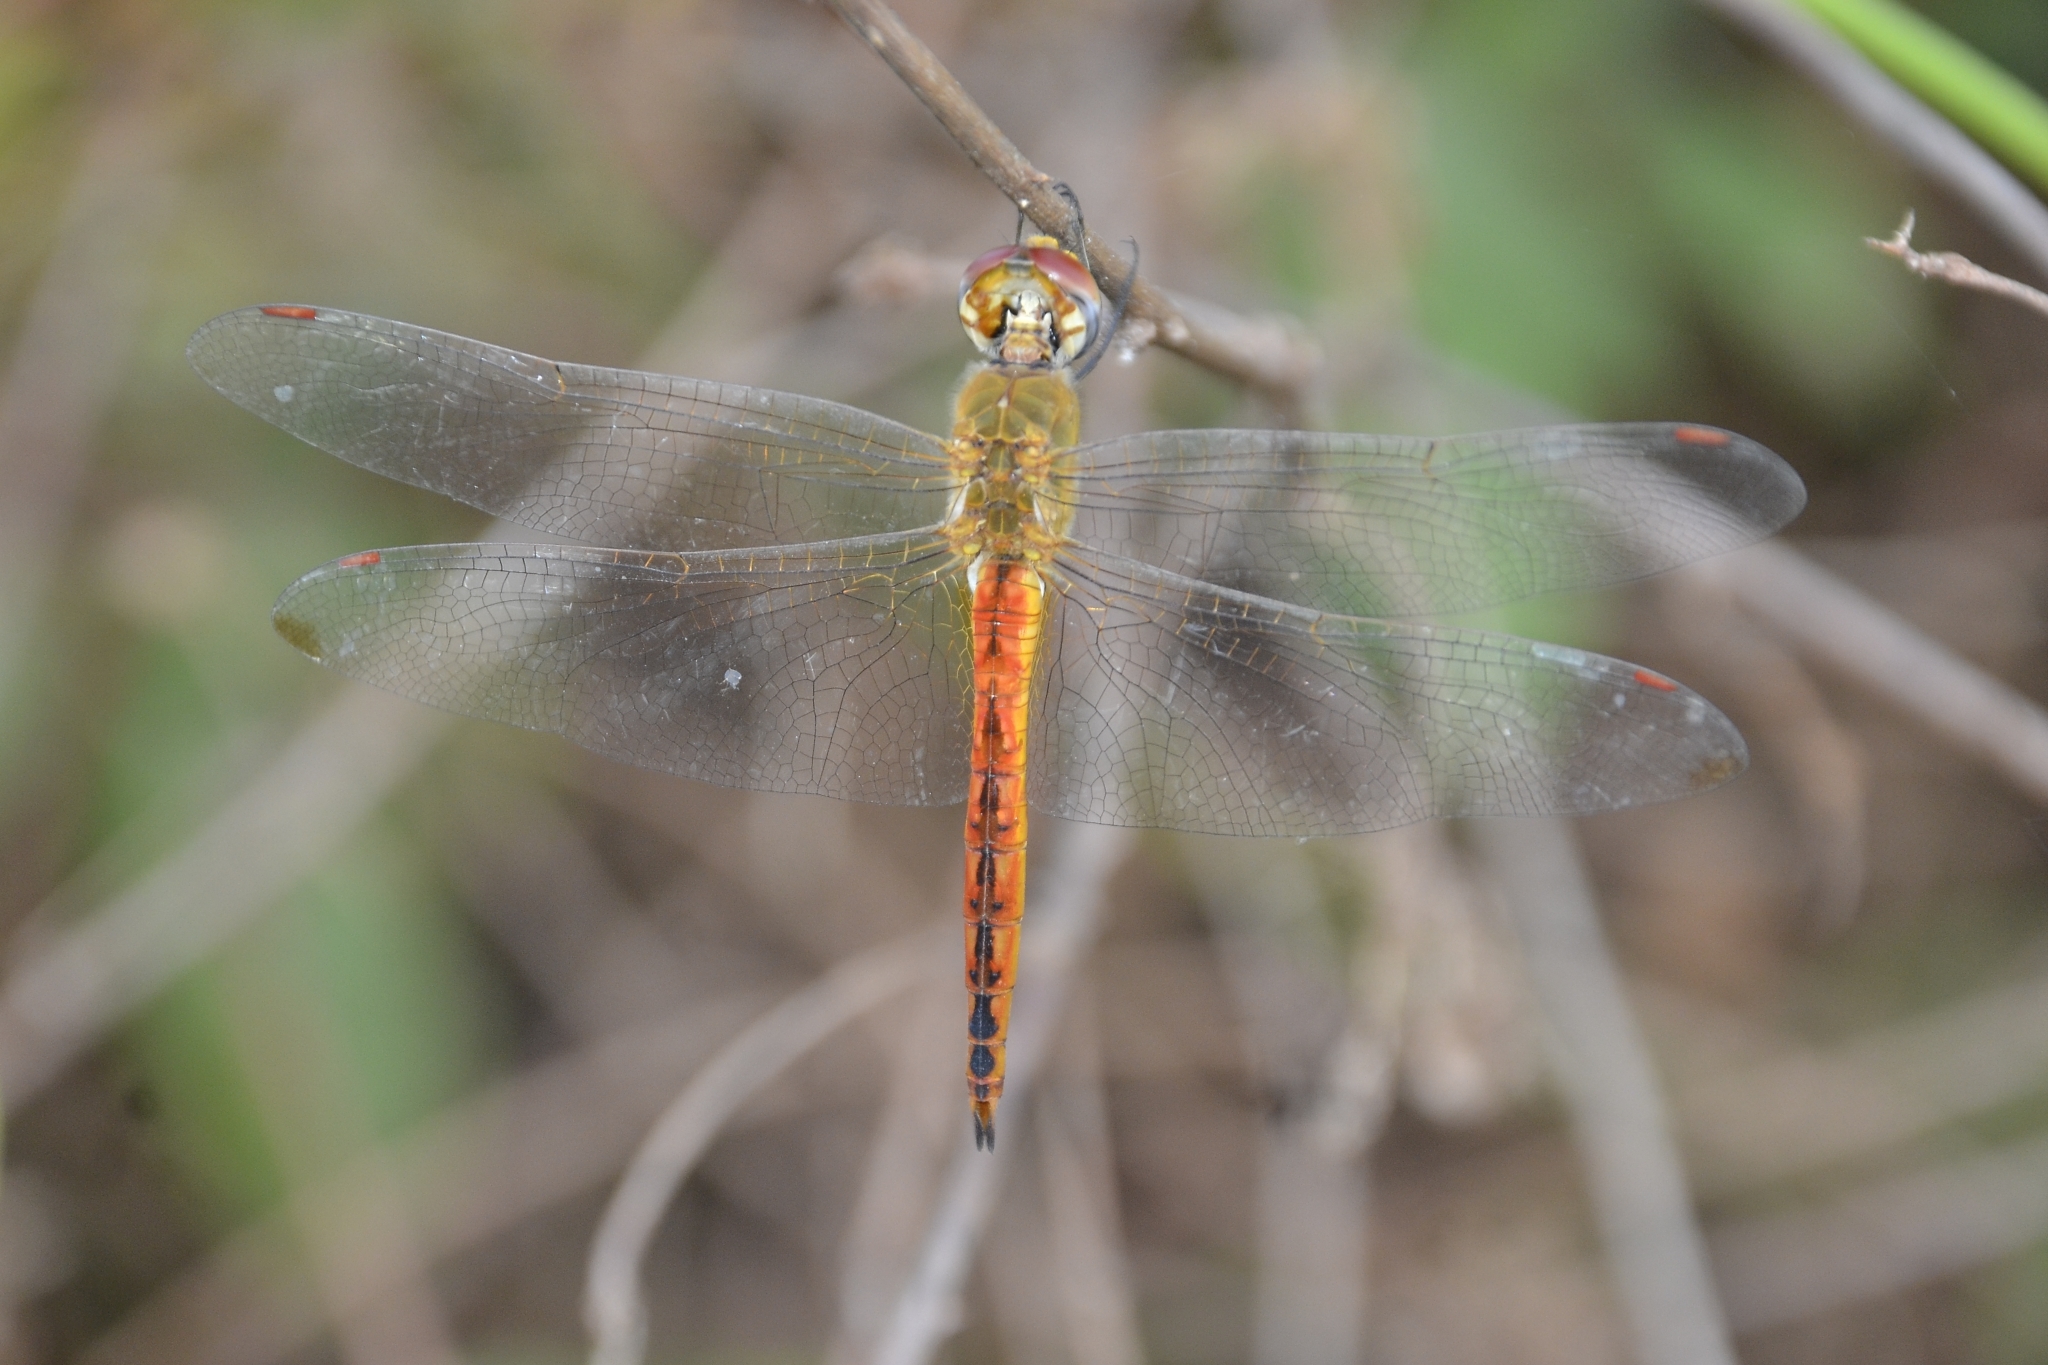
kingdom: Animalia
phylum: Arthropoda
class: Insecta
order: Odonata
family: Libellulidae
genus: Pantala
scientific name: Pantala flavescens
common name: Wandering glider
